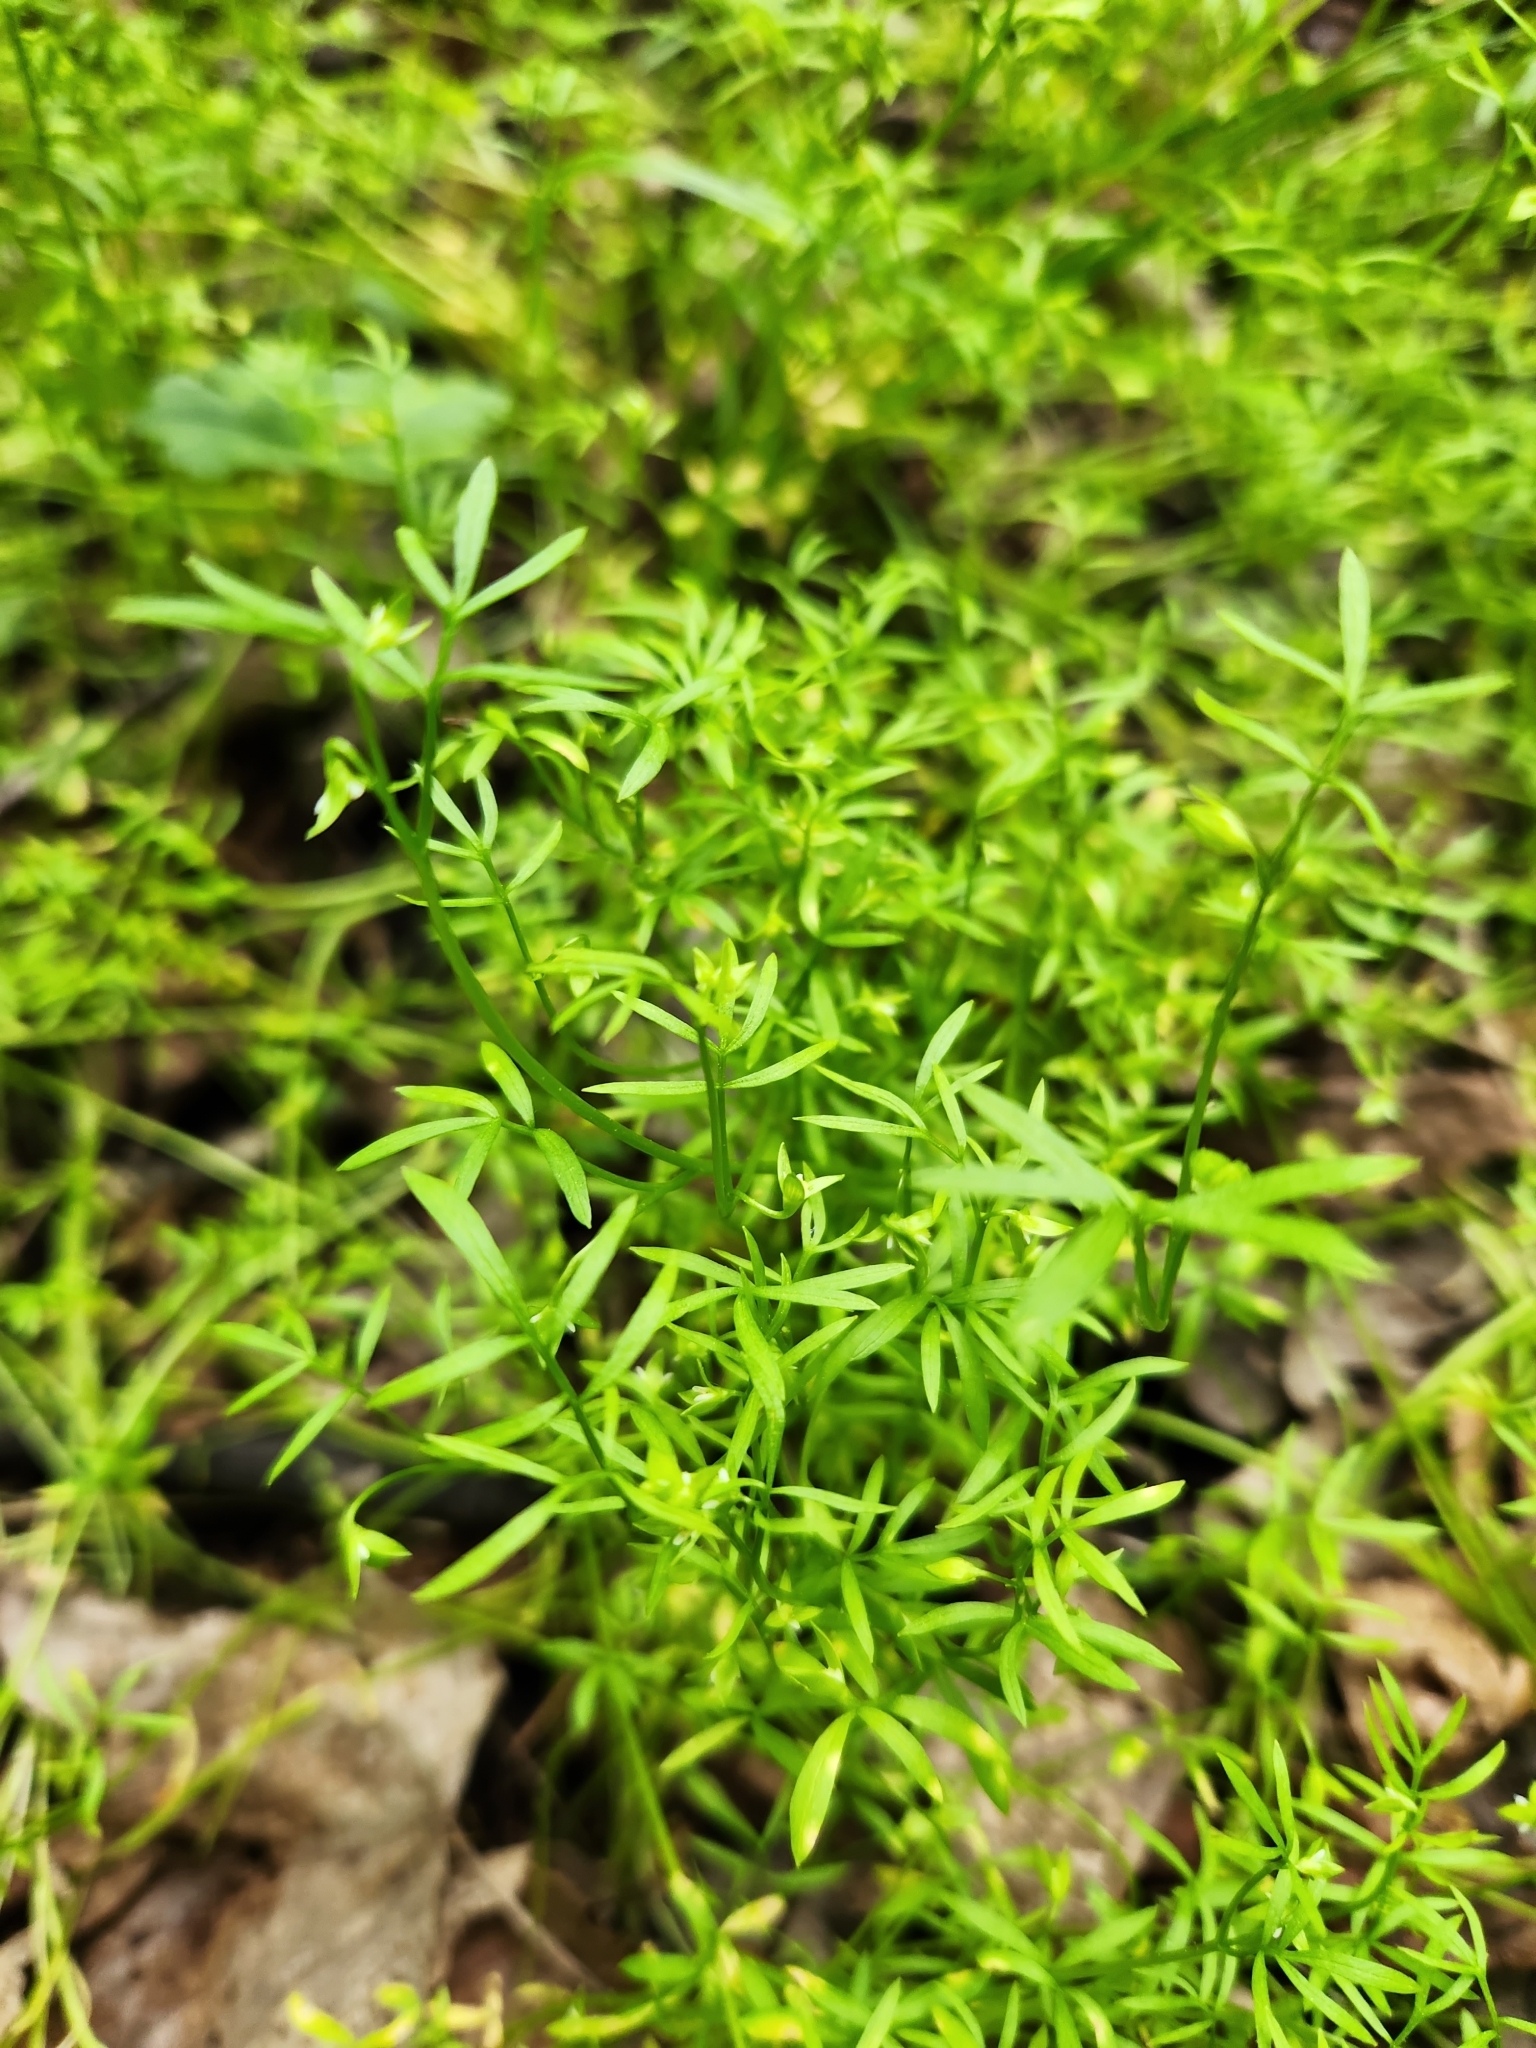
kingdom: Plantae
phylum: Tracheophyta
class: Magnoliopsida
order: Brassicales
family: Limnanthaceae
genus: Floerkea
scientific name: Floerkea proserpinacoides
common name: False mermaid
